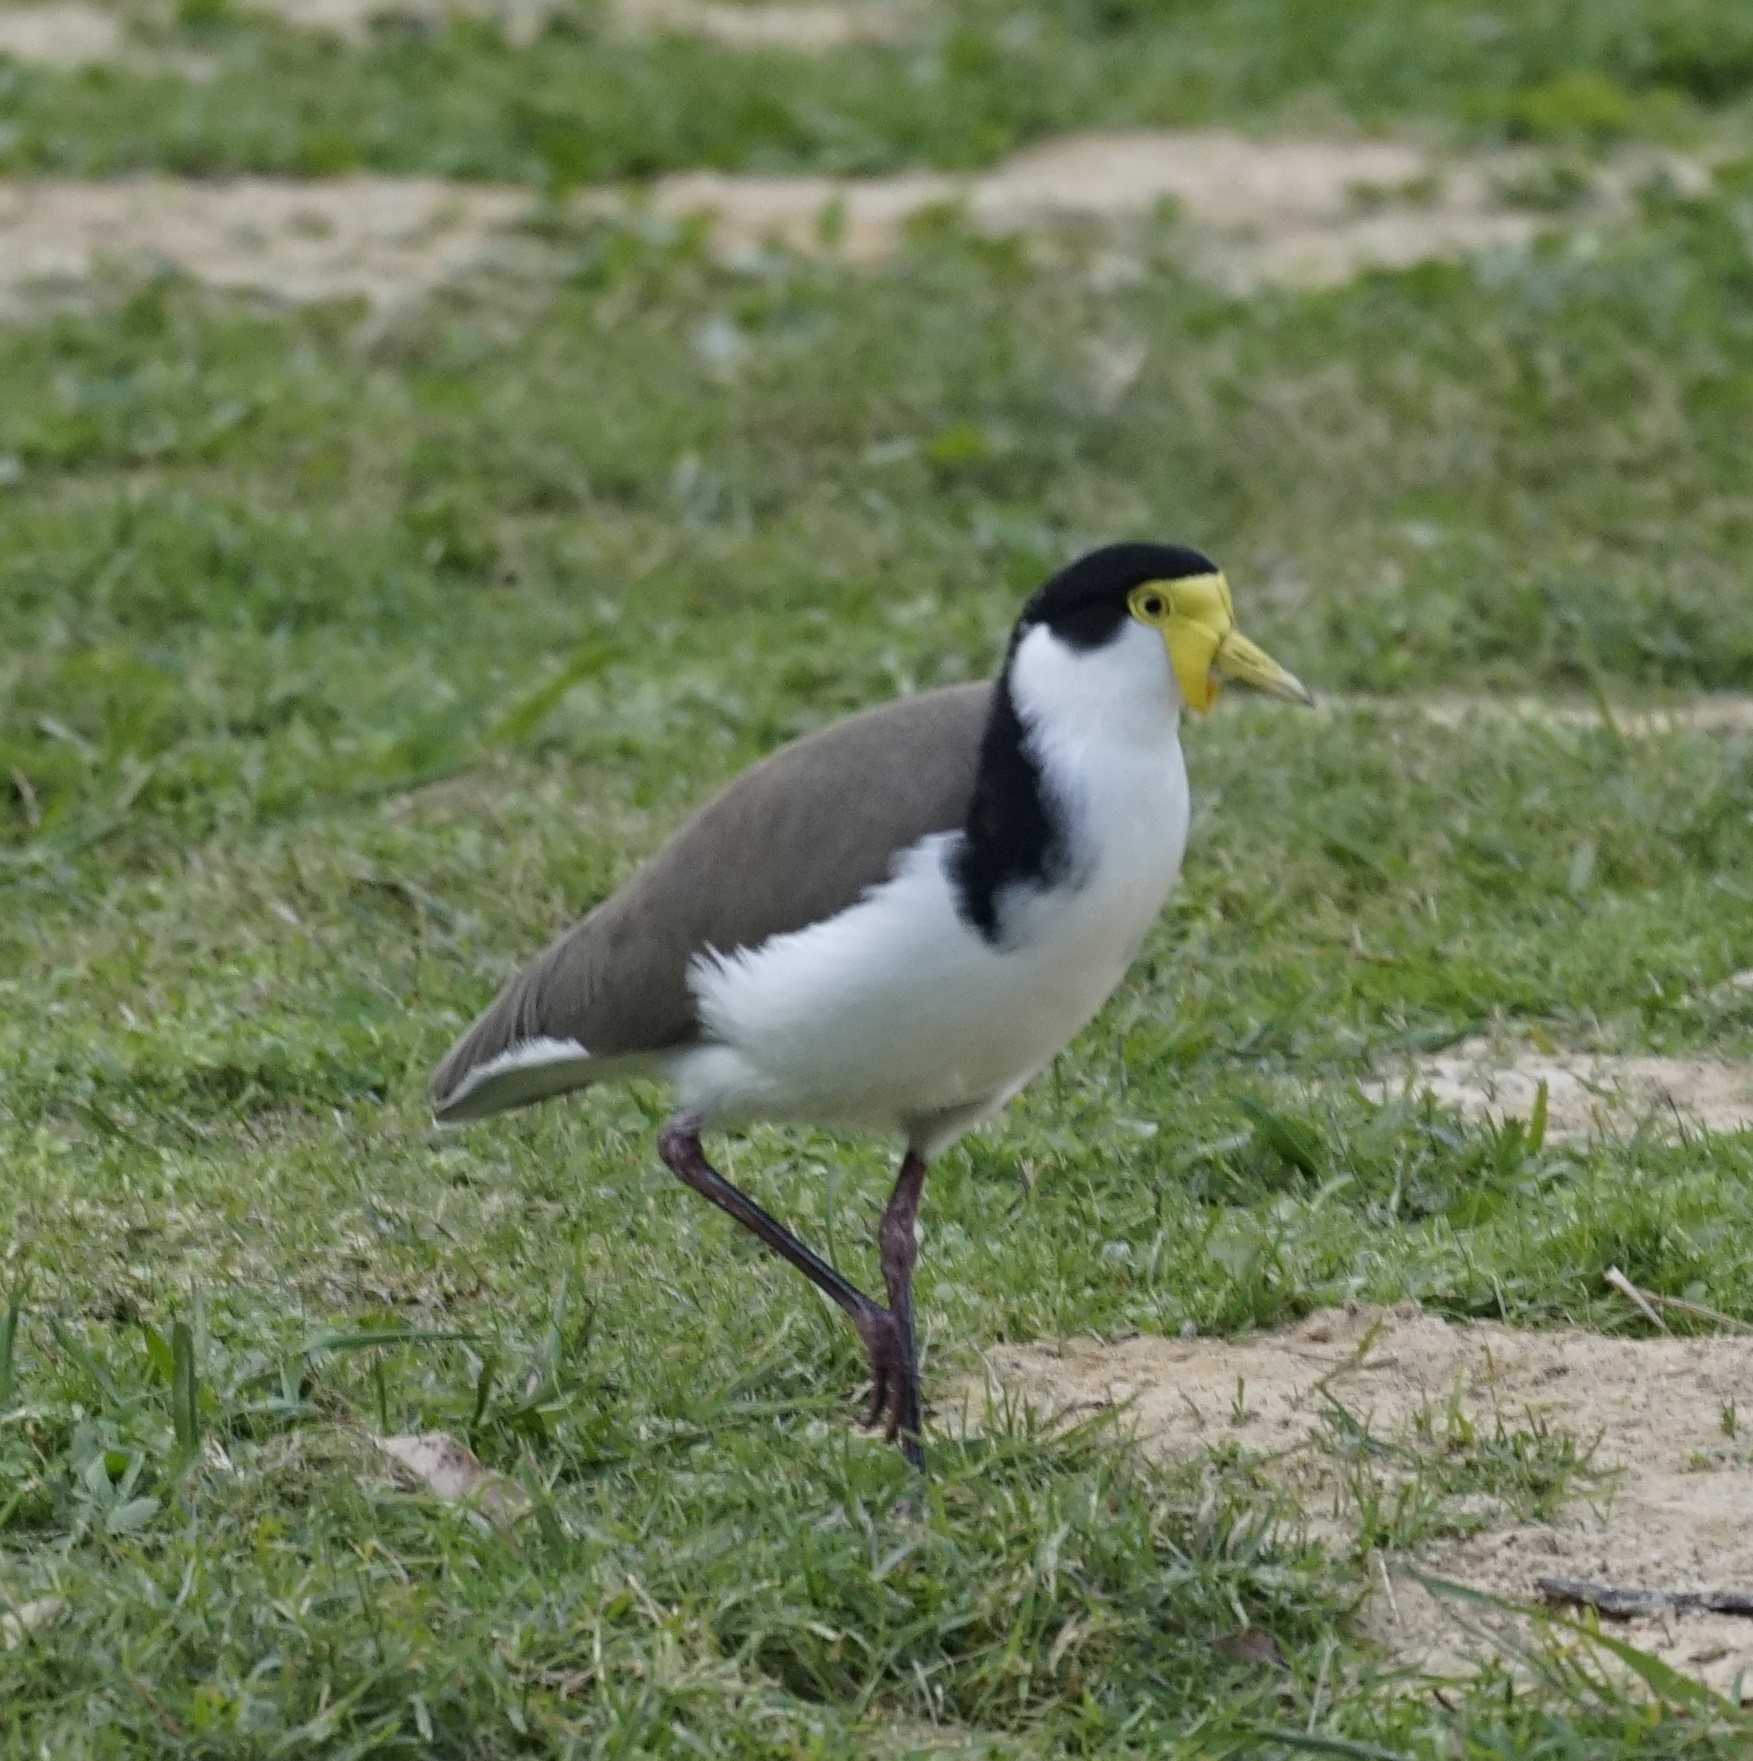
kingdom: Animalia
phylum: Chordata
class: Aves
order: Charadriiformes
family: Charadriidae
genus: Vanellus
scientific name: Vanellus miles
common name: Masked lapwing
